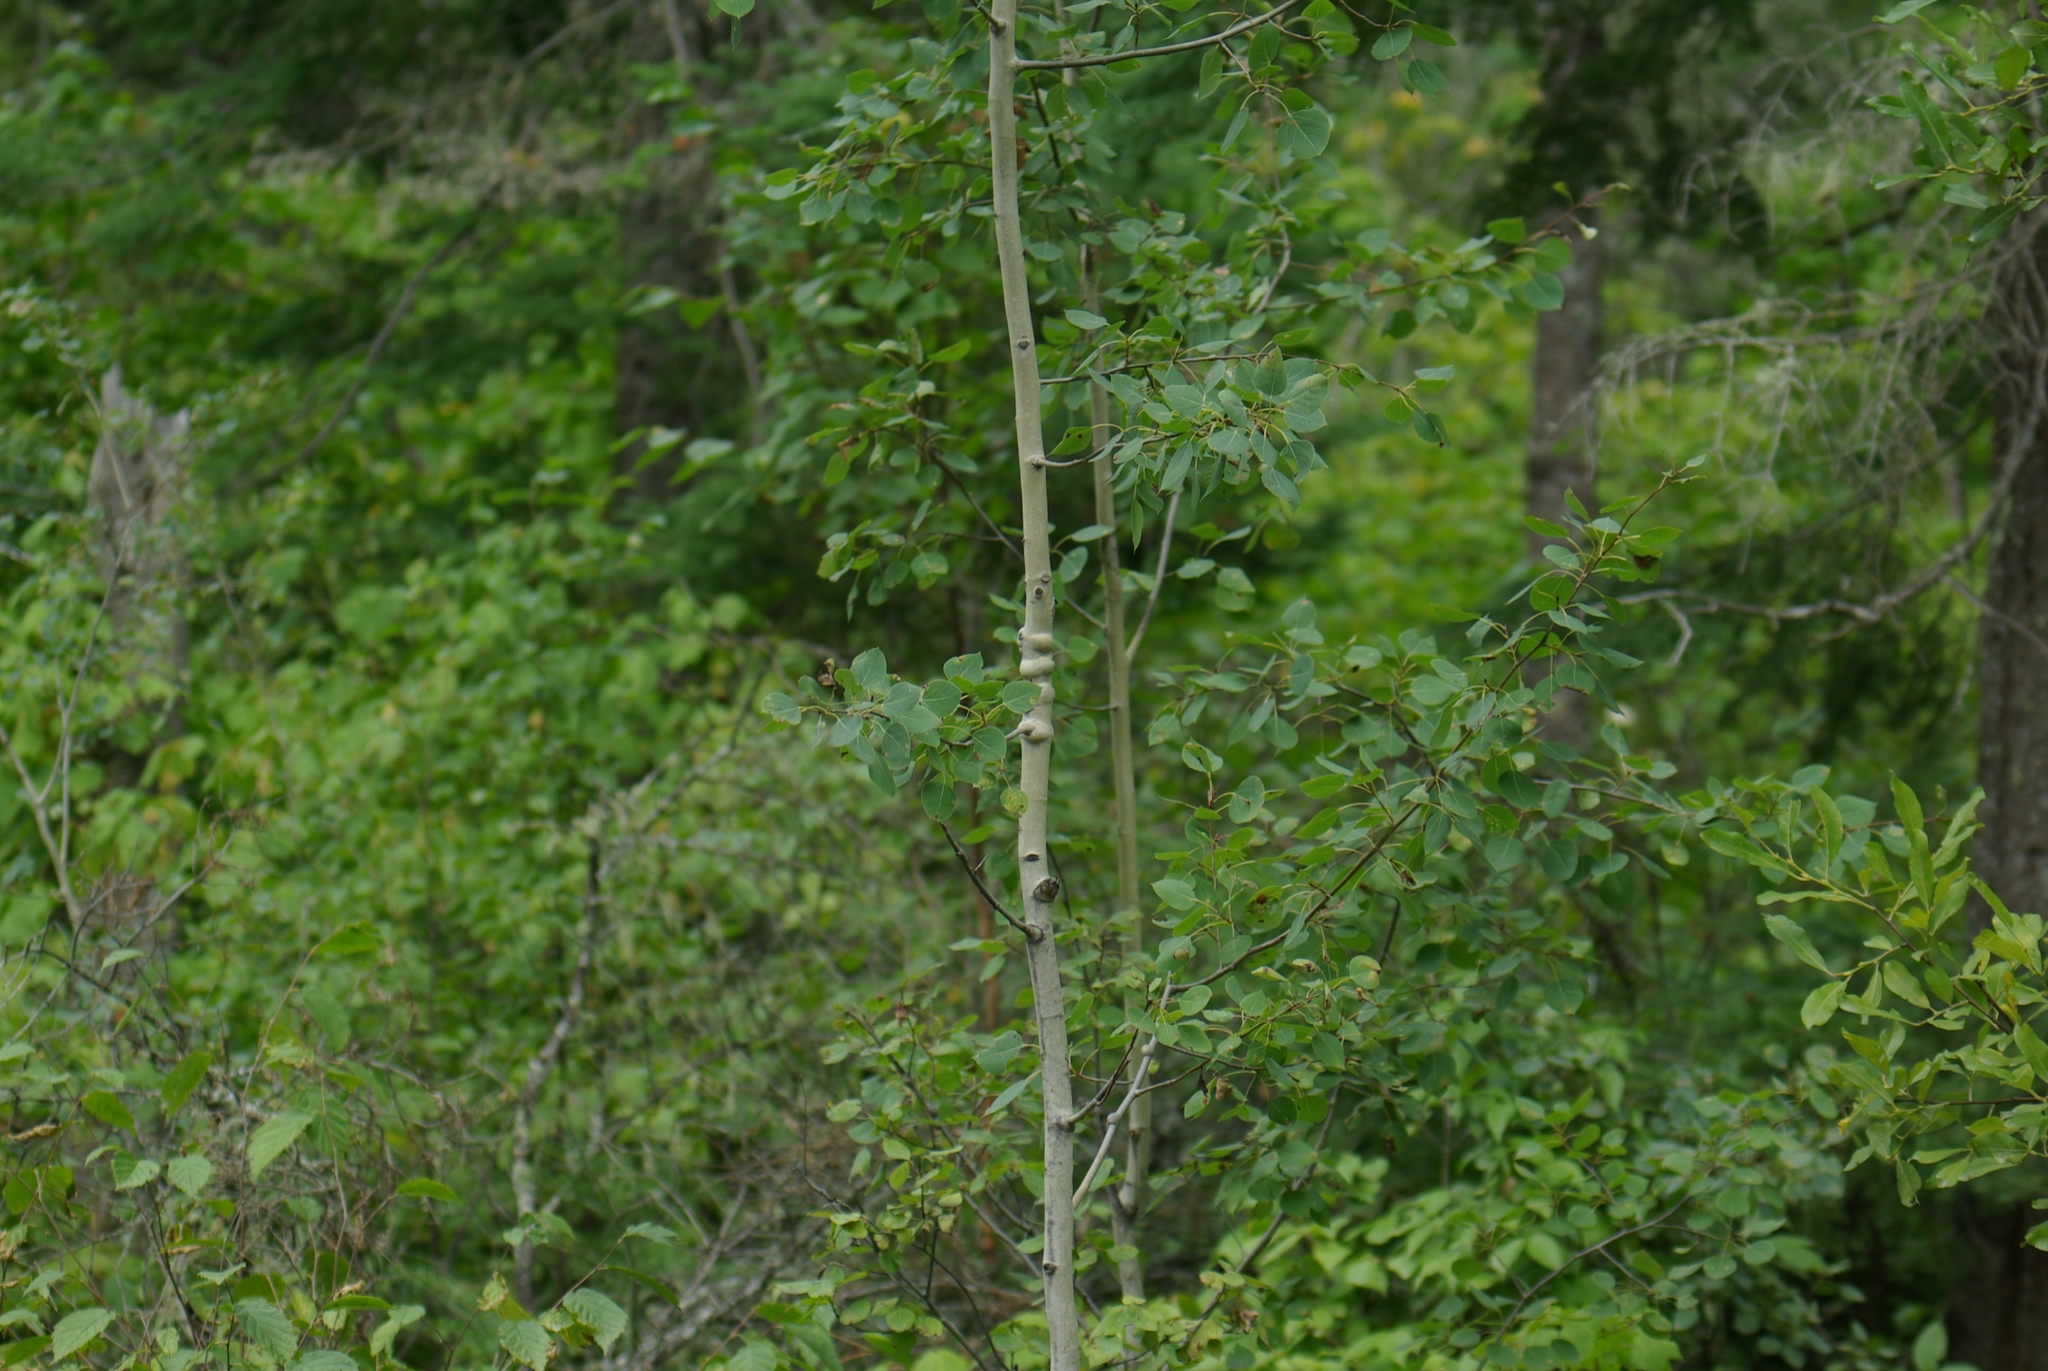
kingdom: Plantae
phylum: Tracheophyta
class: Magnoliopsida
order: Malpighiales
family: Salicaceae
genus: Populus
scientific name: Populus tremuloides
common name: Quaking aspen
